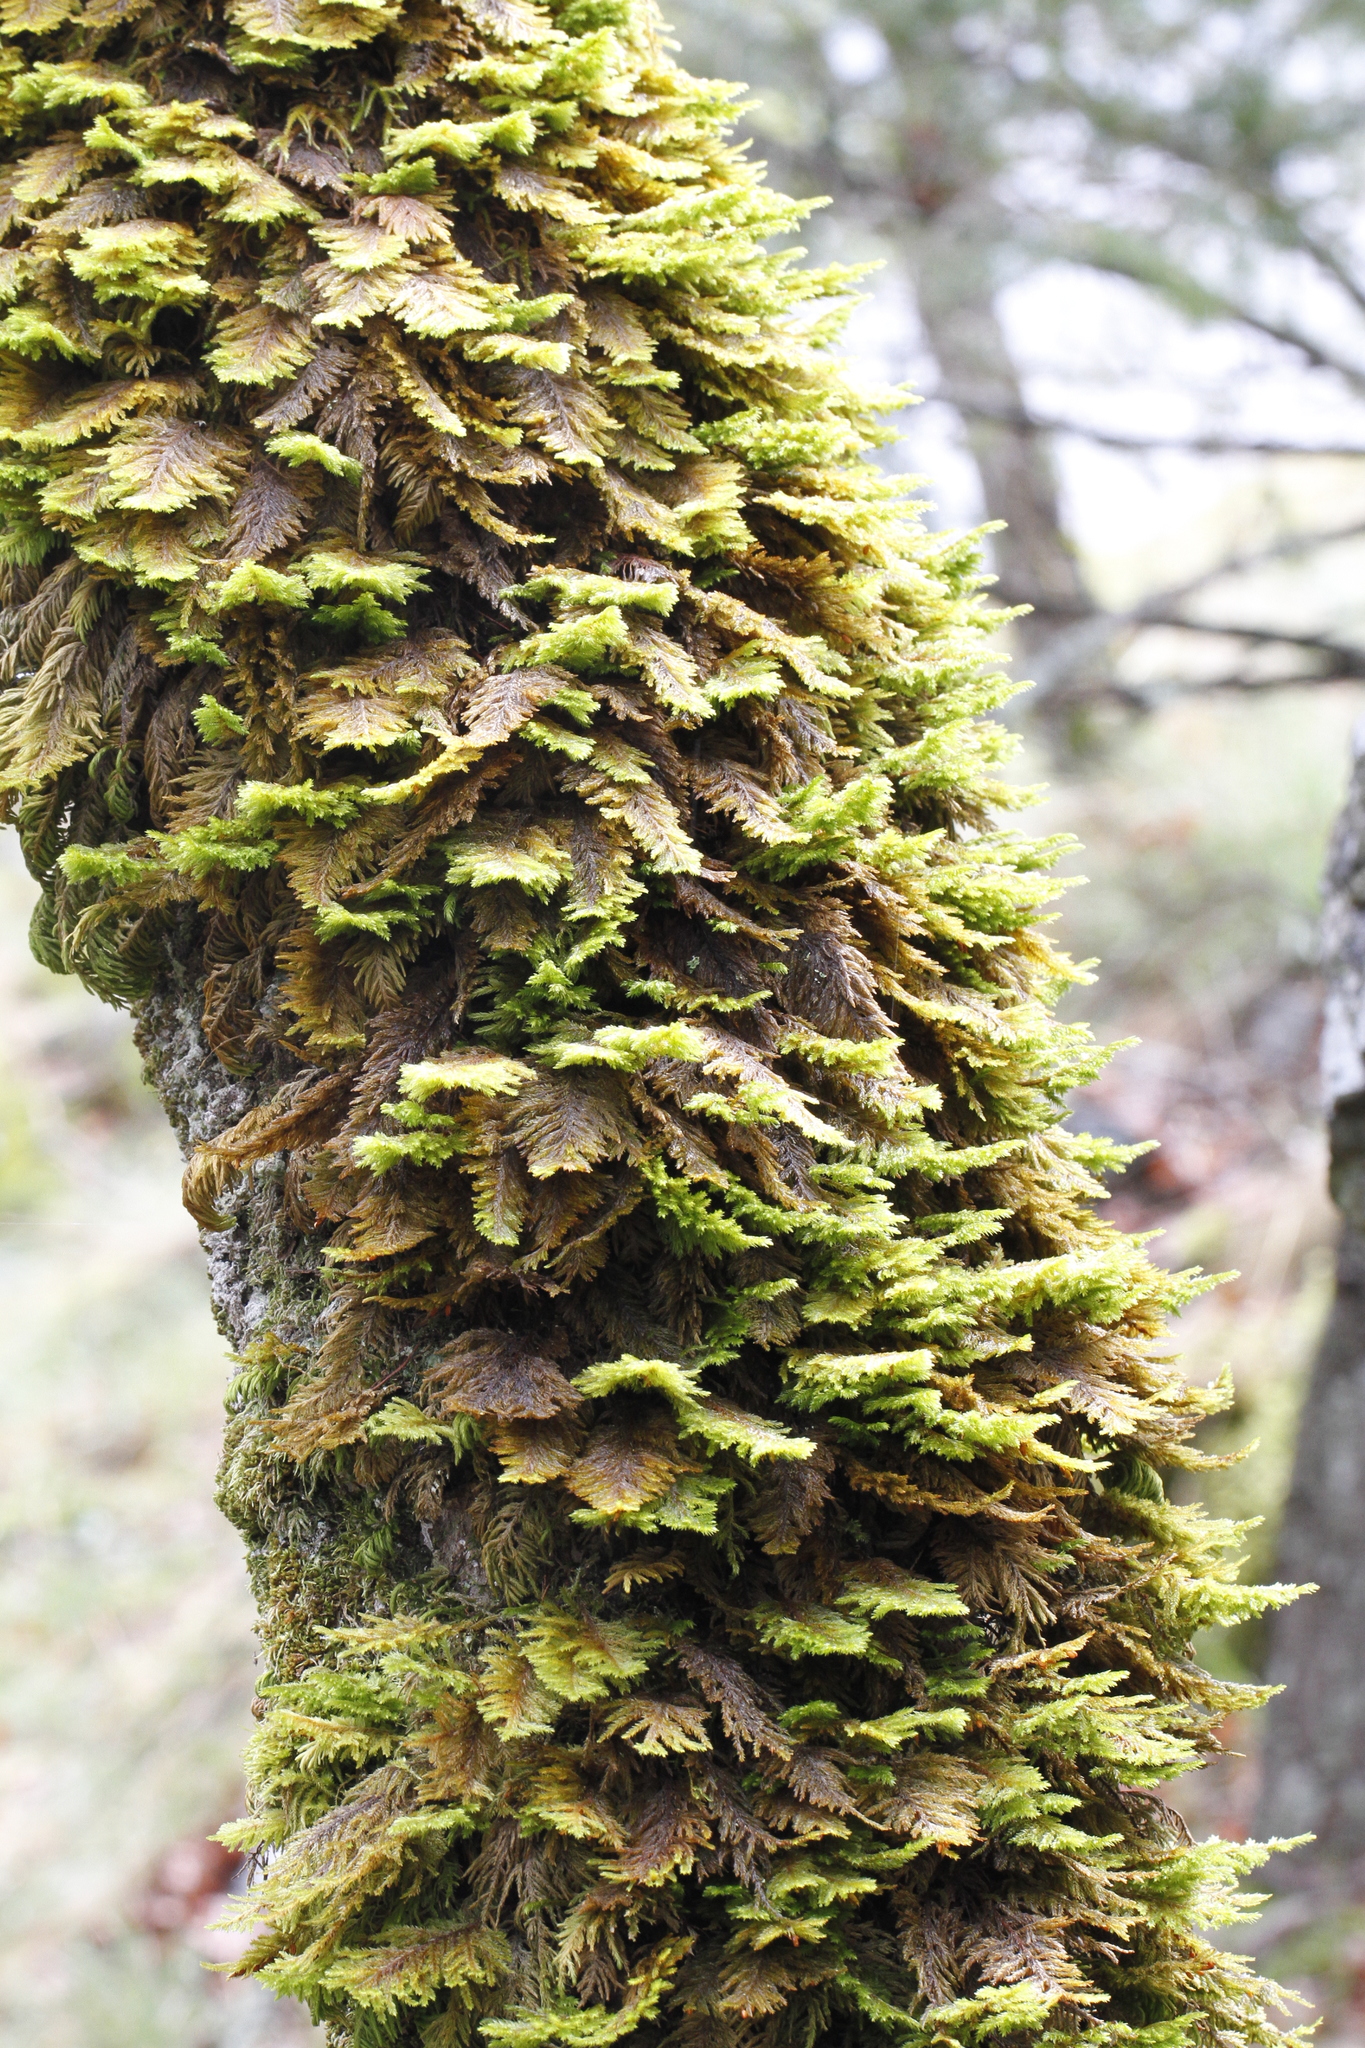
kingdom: Plantae
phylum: Bryophyta
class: Bryopsida
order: Hypnales
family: Cryphaeaceae
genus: Dendroalsia
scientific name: Dendroalsia abietina
